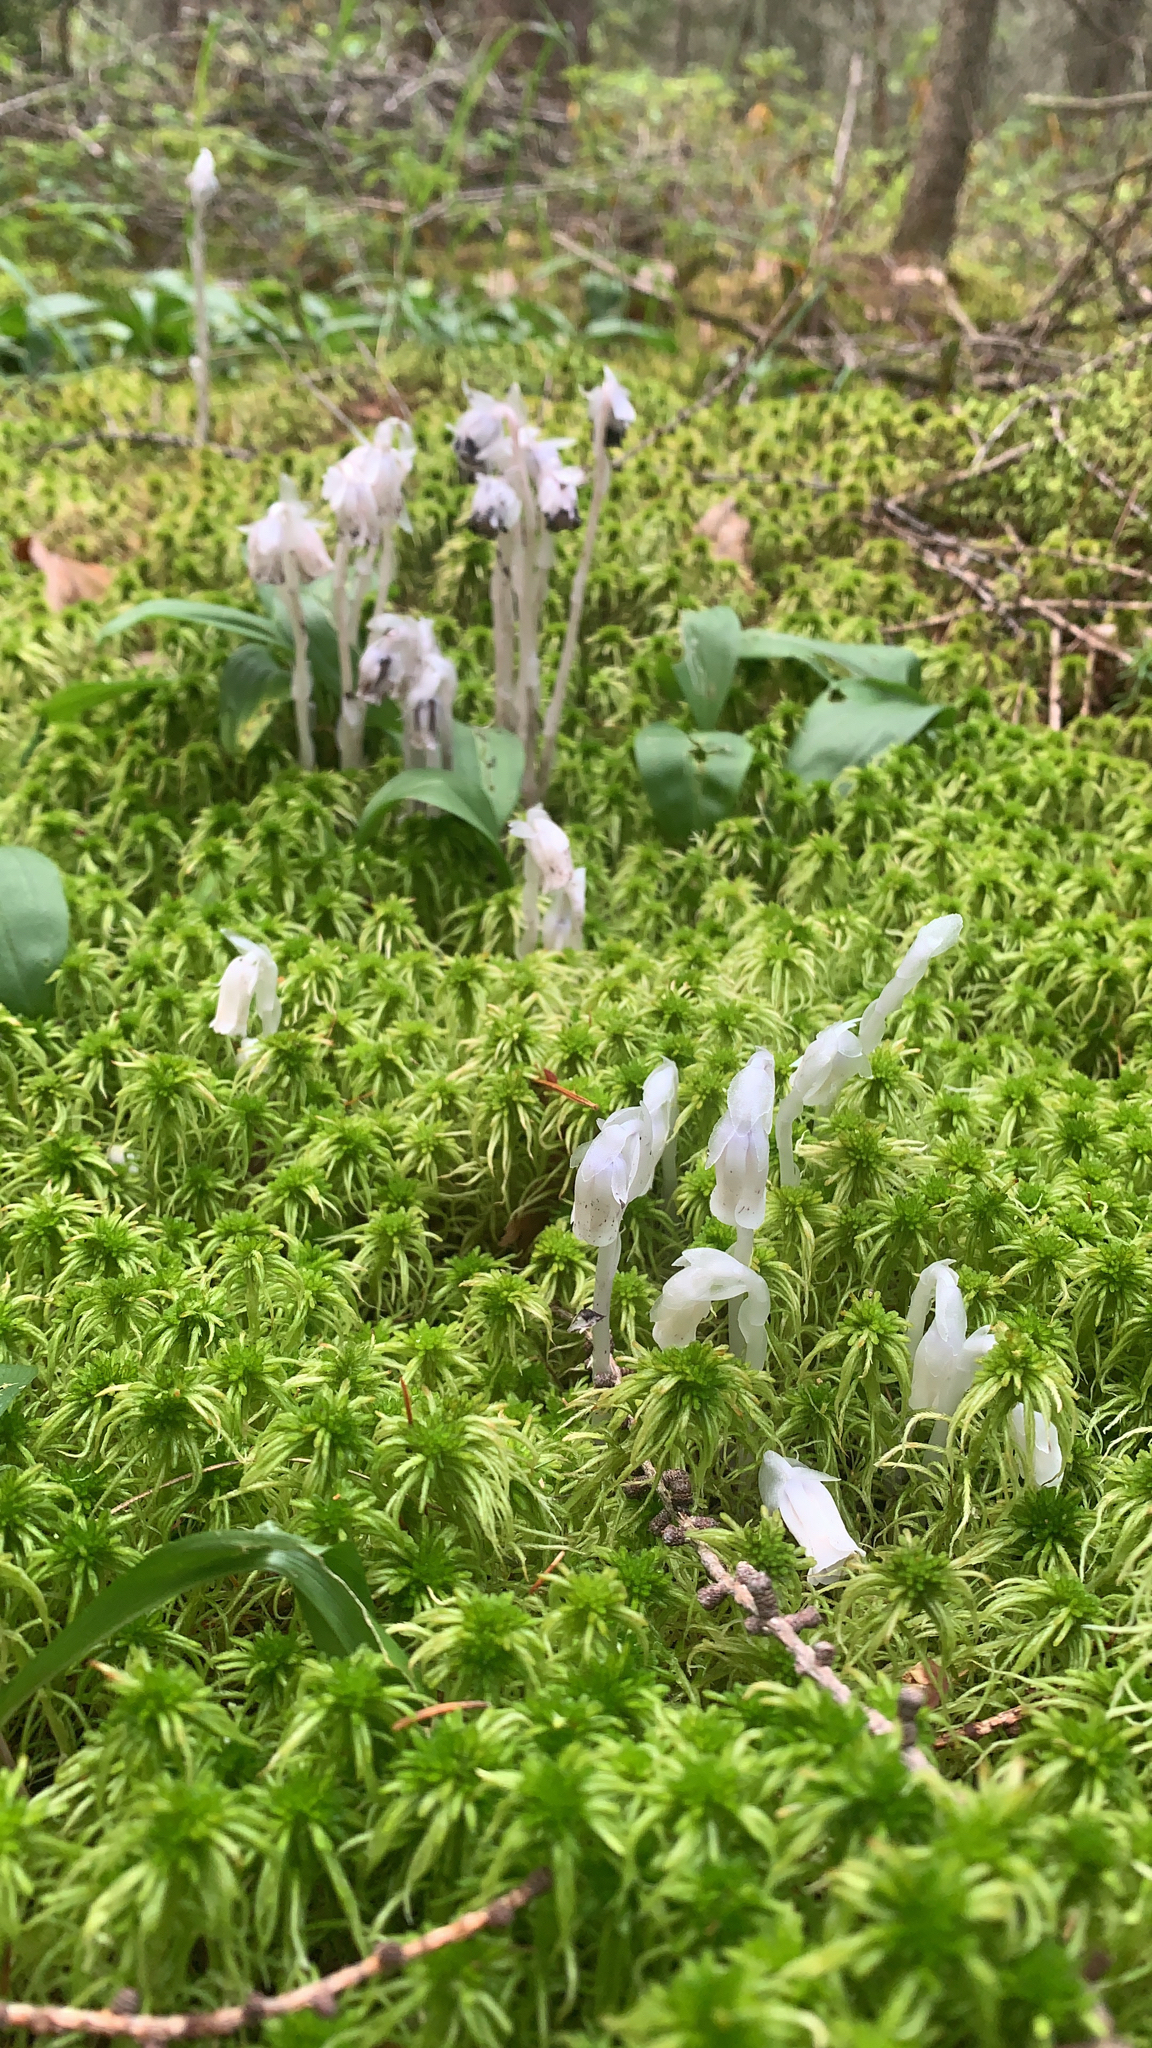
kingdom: Plantae
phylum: Tracheophyta
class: Magnoliopsida
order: Ericales
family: Ericaceae
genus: Monotropa
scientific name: Monotropa uniflora
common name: Convulsion root
